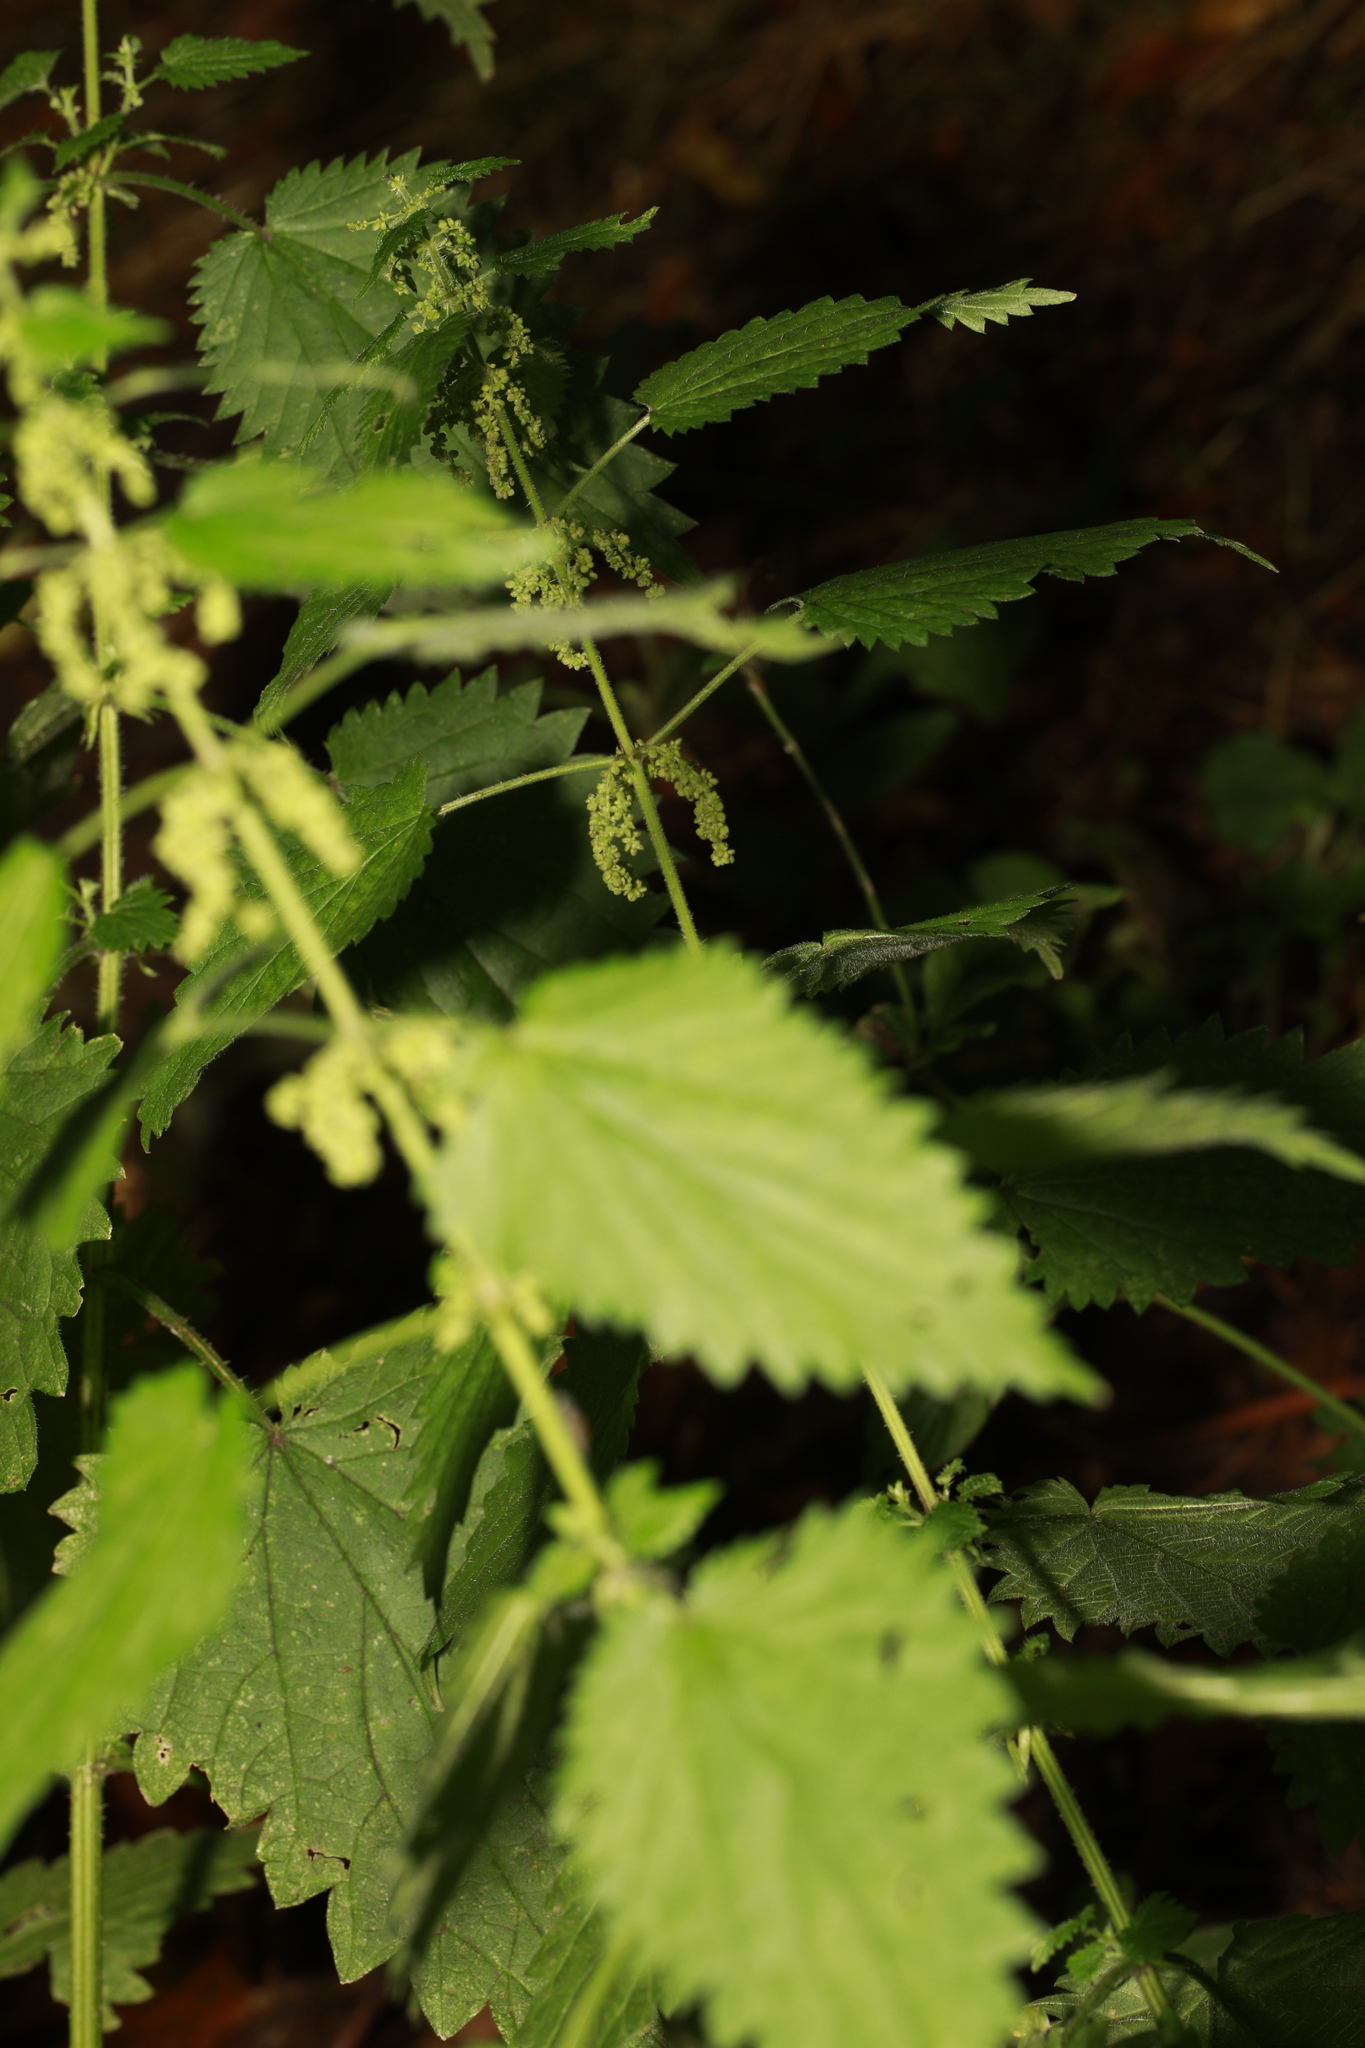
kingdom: Plantae
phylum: Tracheophyta
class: Magnoliopsida
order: Rosales
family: Urticaceae
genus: Urtica
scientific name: Urtica dioica
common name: Common nettle
